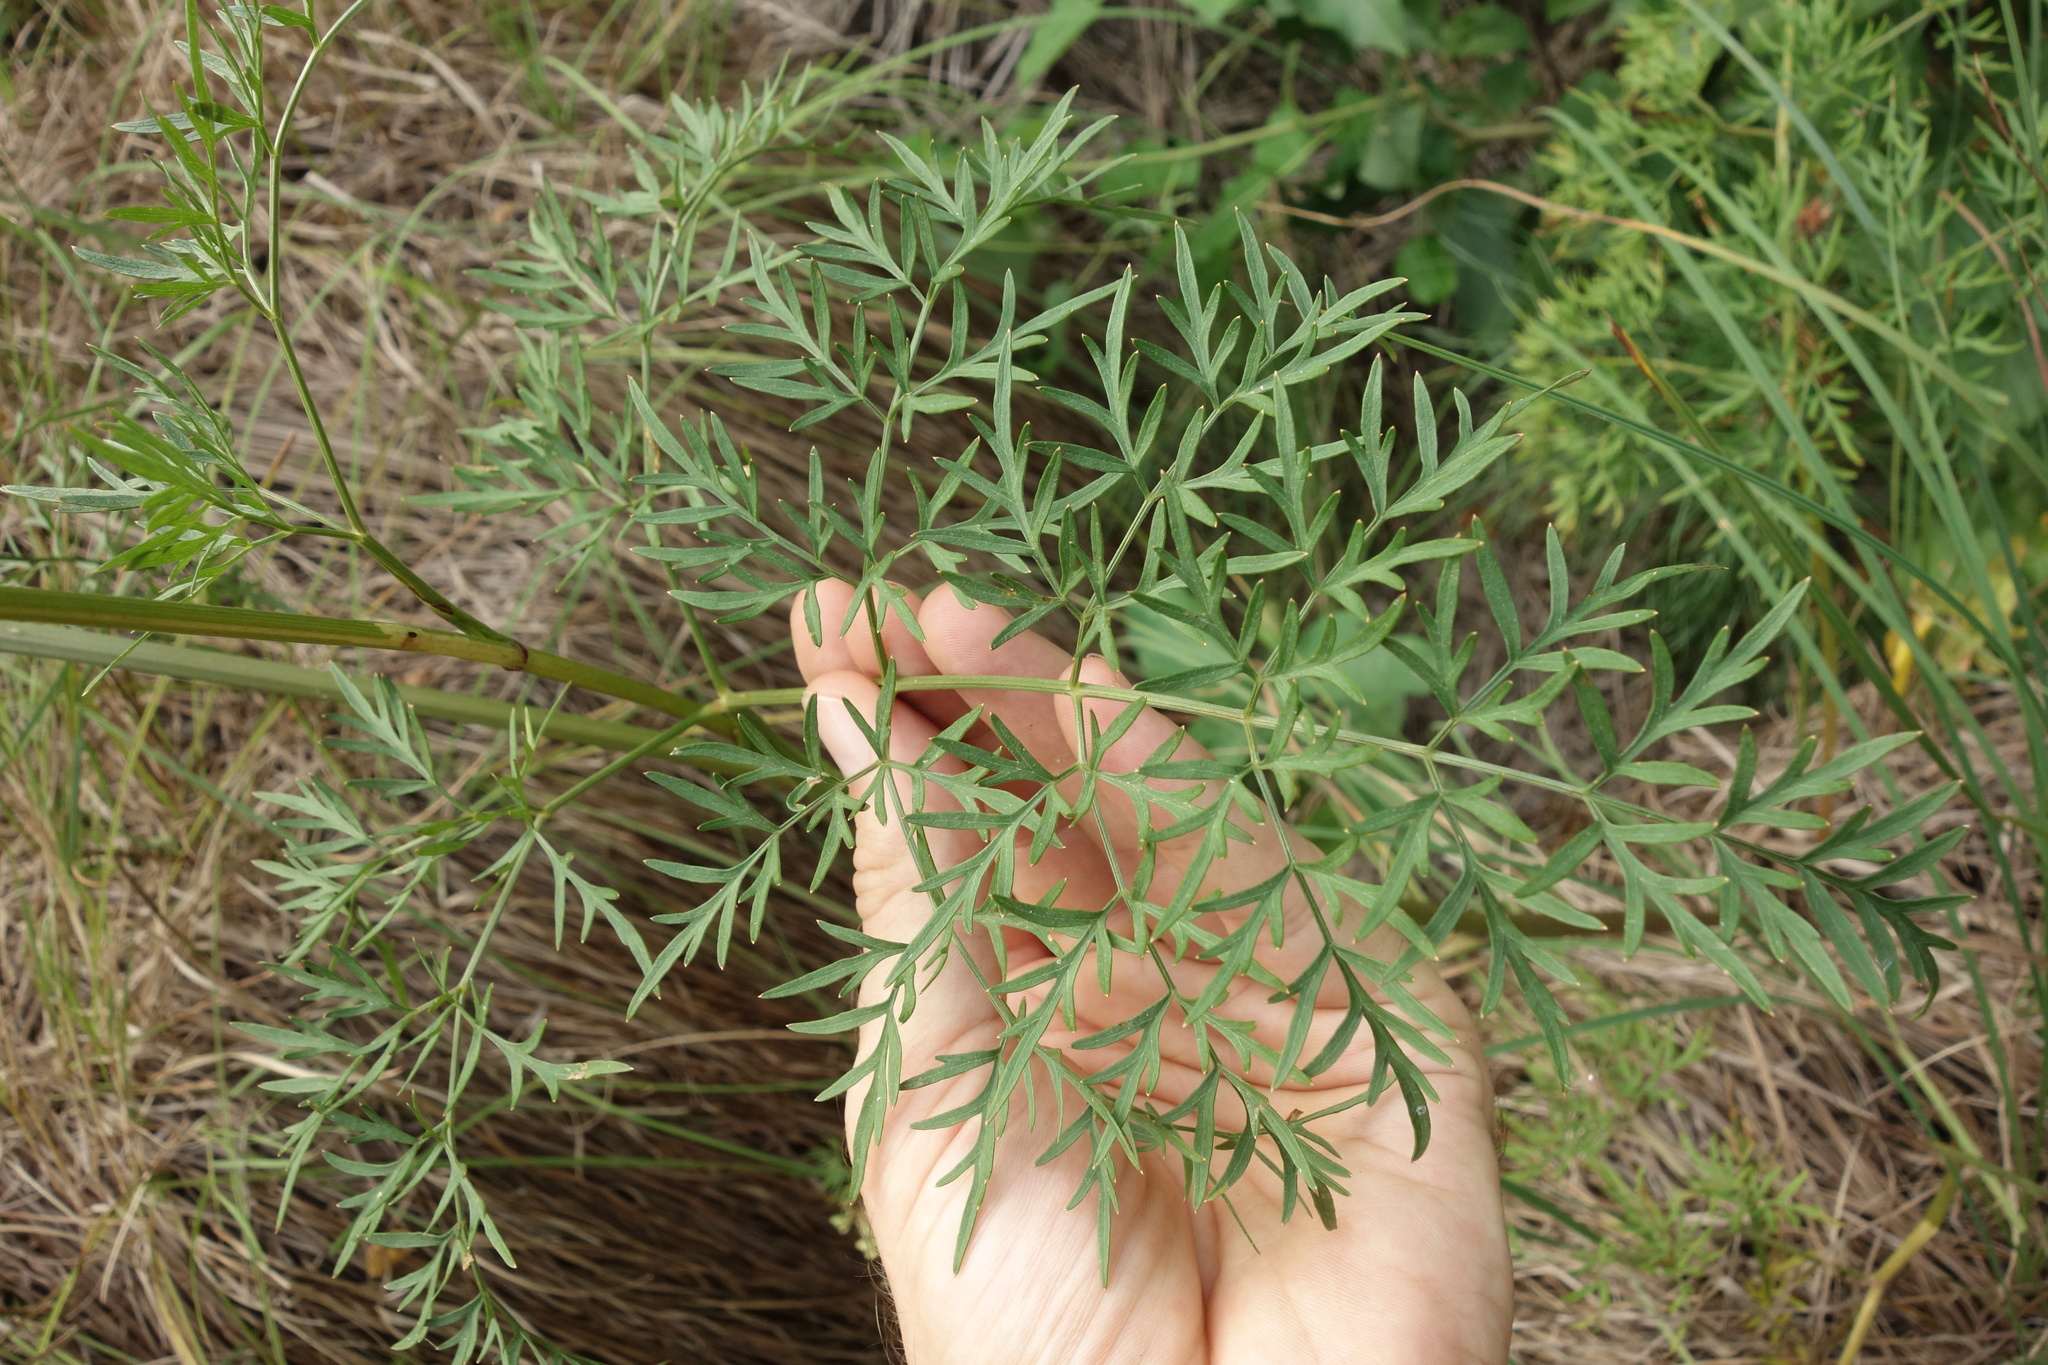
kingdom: Plantae
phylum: Tracheophyta
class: Magnoliopsida
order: Apiales
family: Apiaceae
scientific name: Apiaceae
